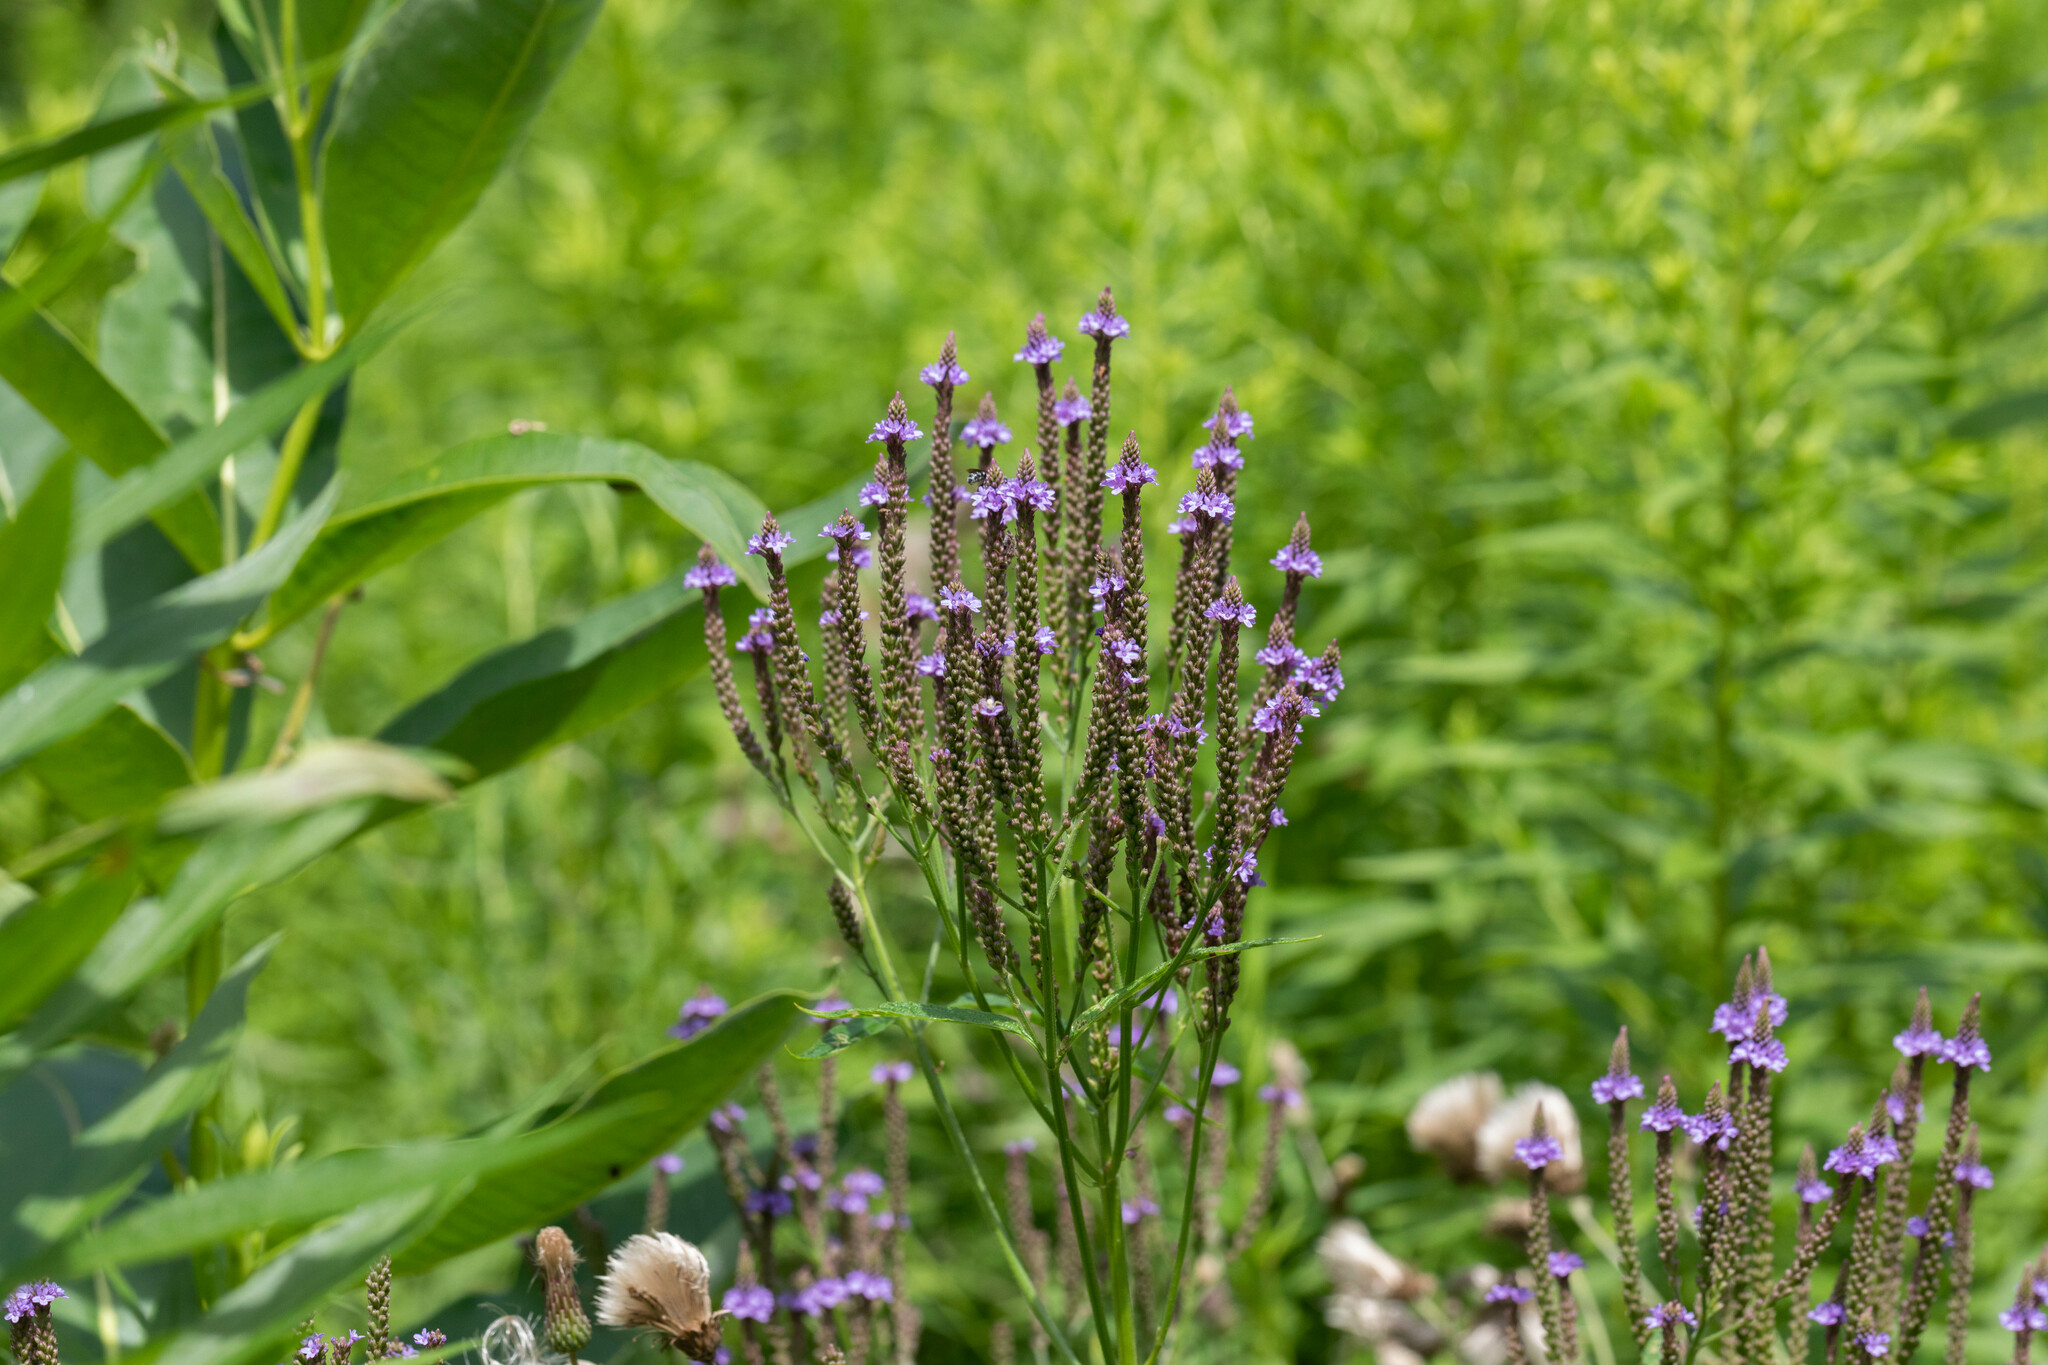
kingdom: Plantae
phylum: Tracheophyta
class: Magnoliopsida
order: Lamiales
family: Verbenaceae
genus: Verbena
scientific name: Verbena hastata
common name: American blue vervain
